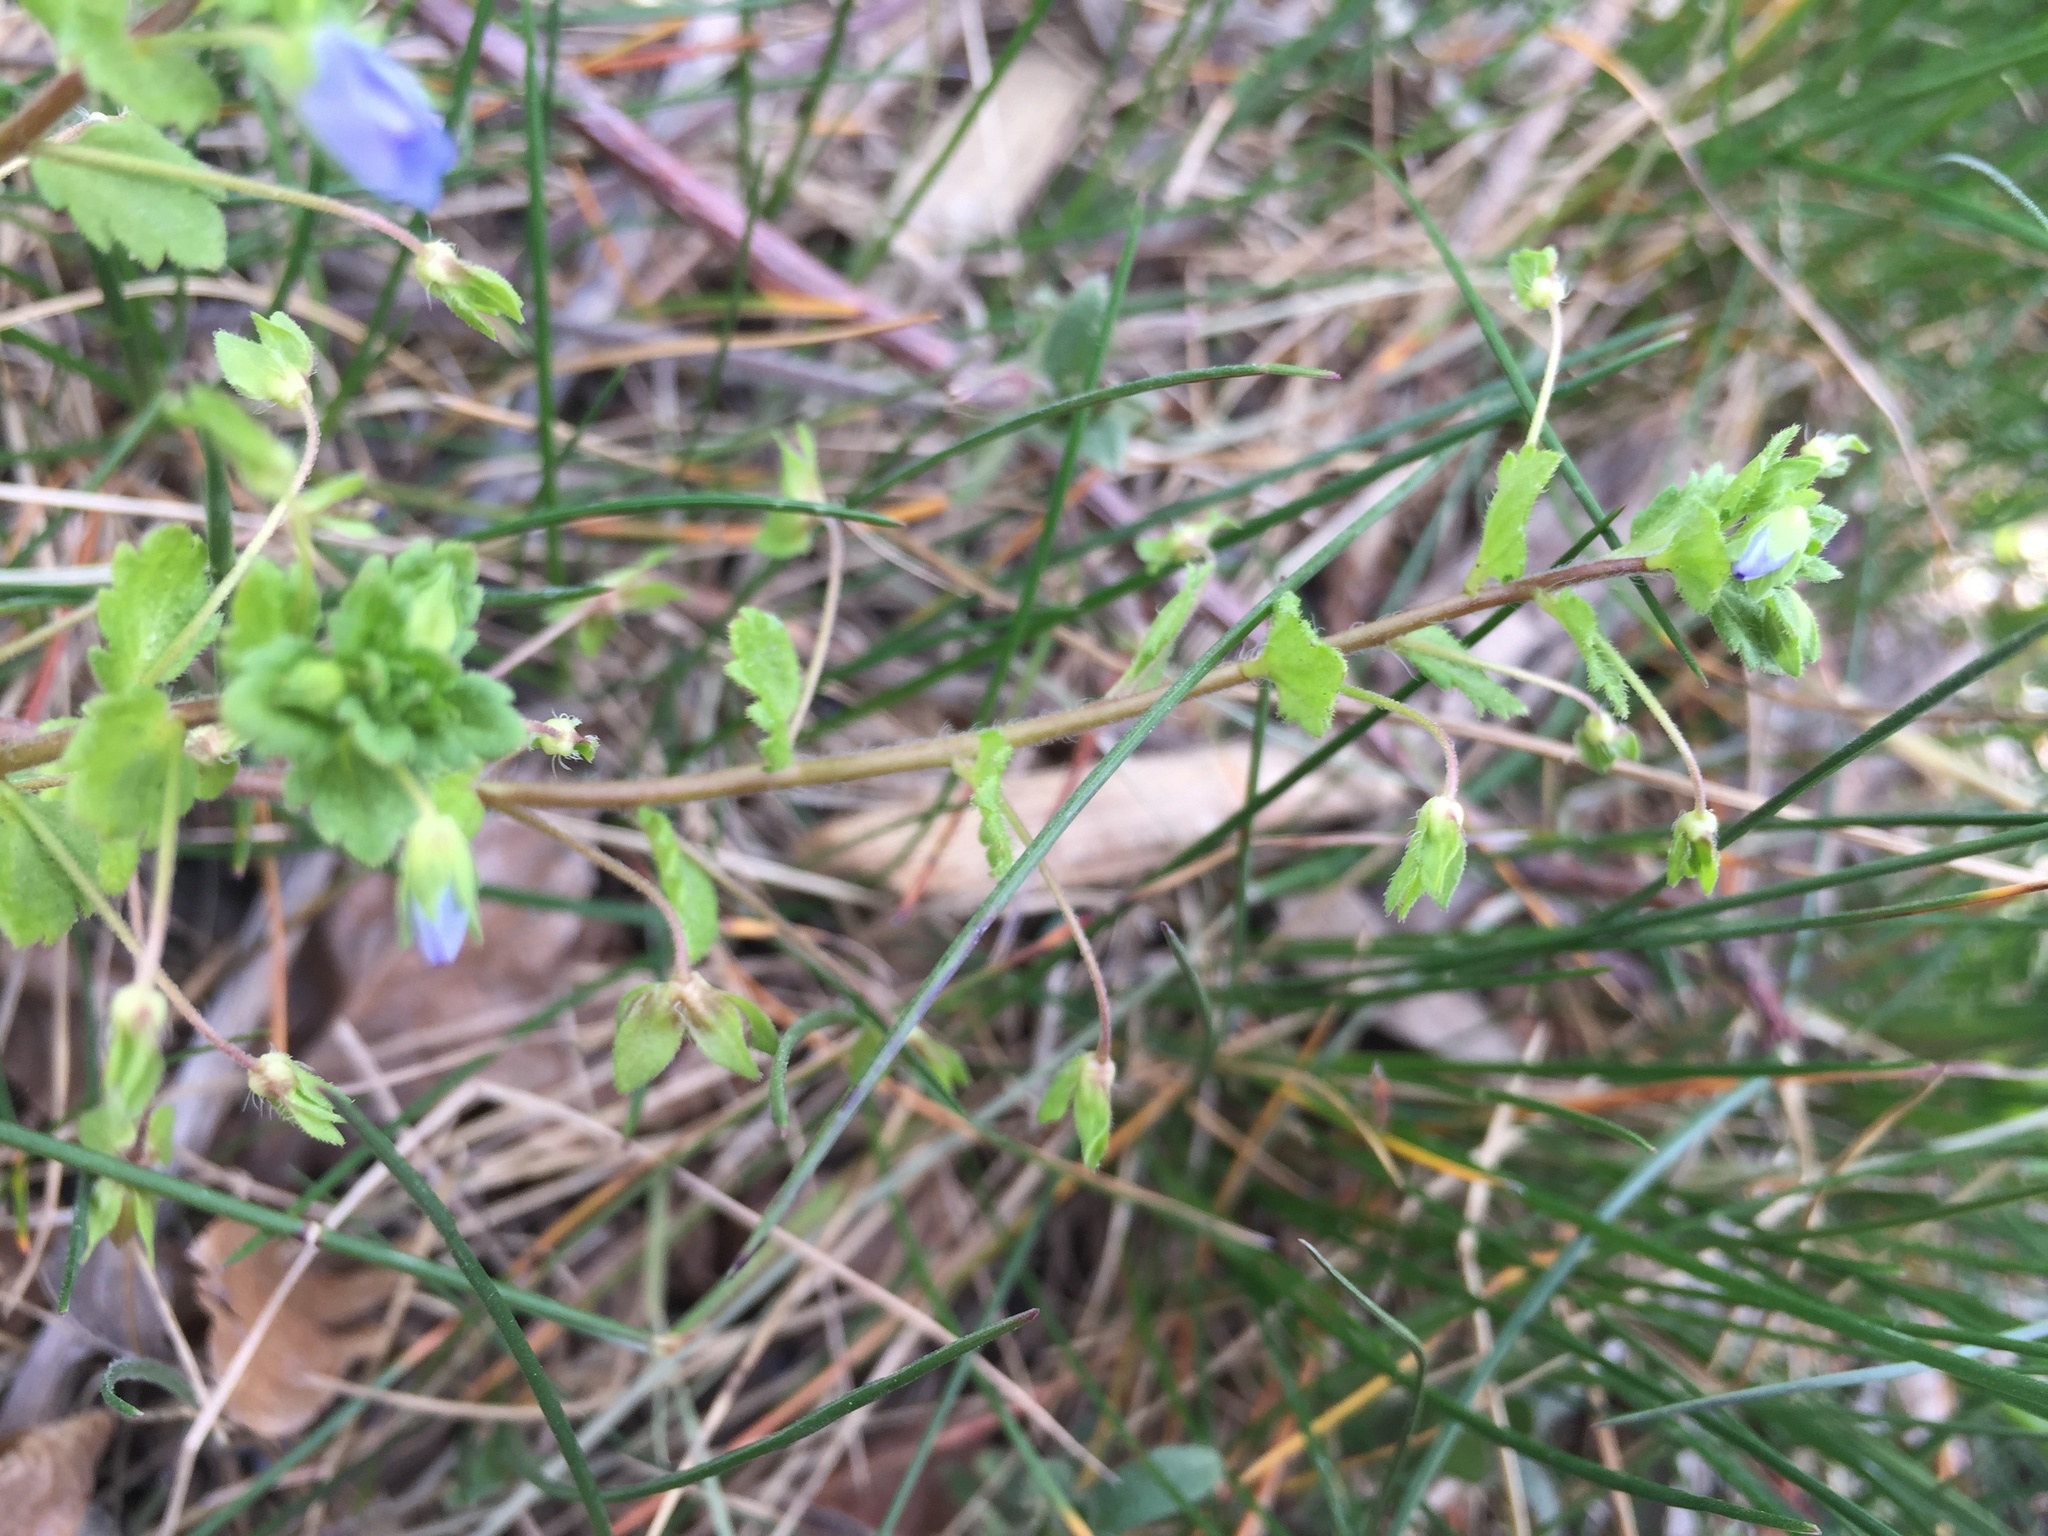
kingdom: Plantae
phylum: Tracheophyta
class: Magnoliopsida
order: Lamiales
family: Plantaginaceae
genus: Veronica
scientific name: Veronica persica
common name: Common field-speedwell
